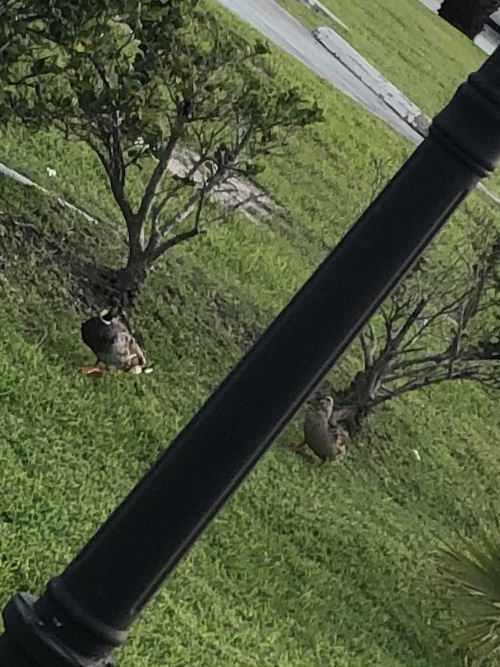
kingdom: Animalia
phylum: Chordata
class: Aves
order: Anseriformes
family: Anatidae
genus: Anas
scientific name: Anas platyrhynchos
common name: Mallard
